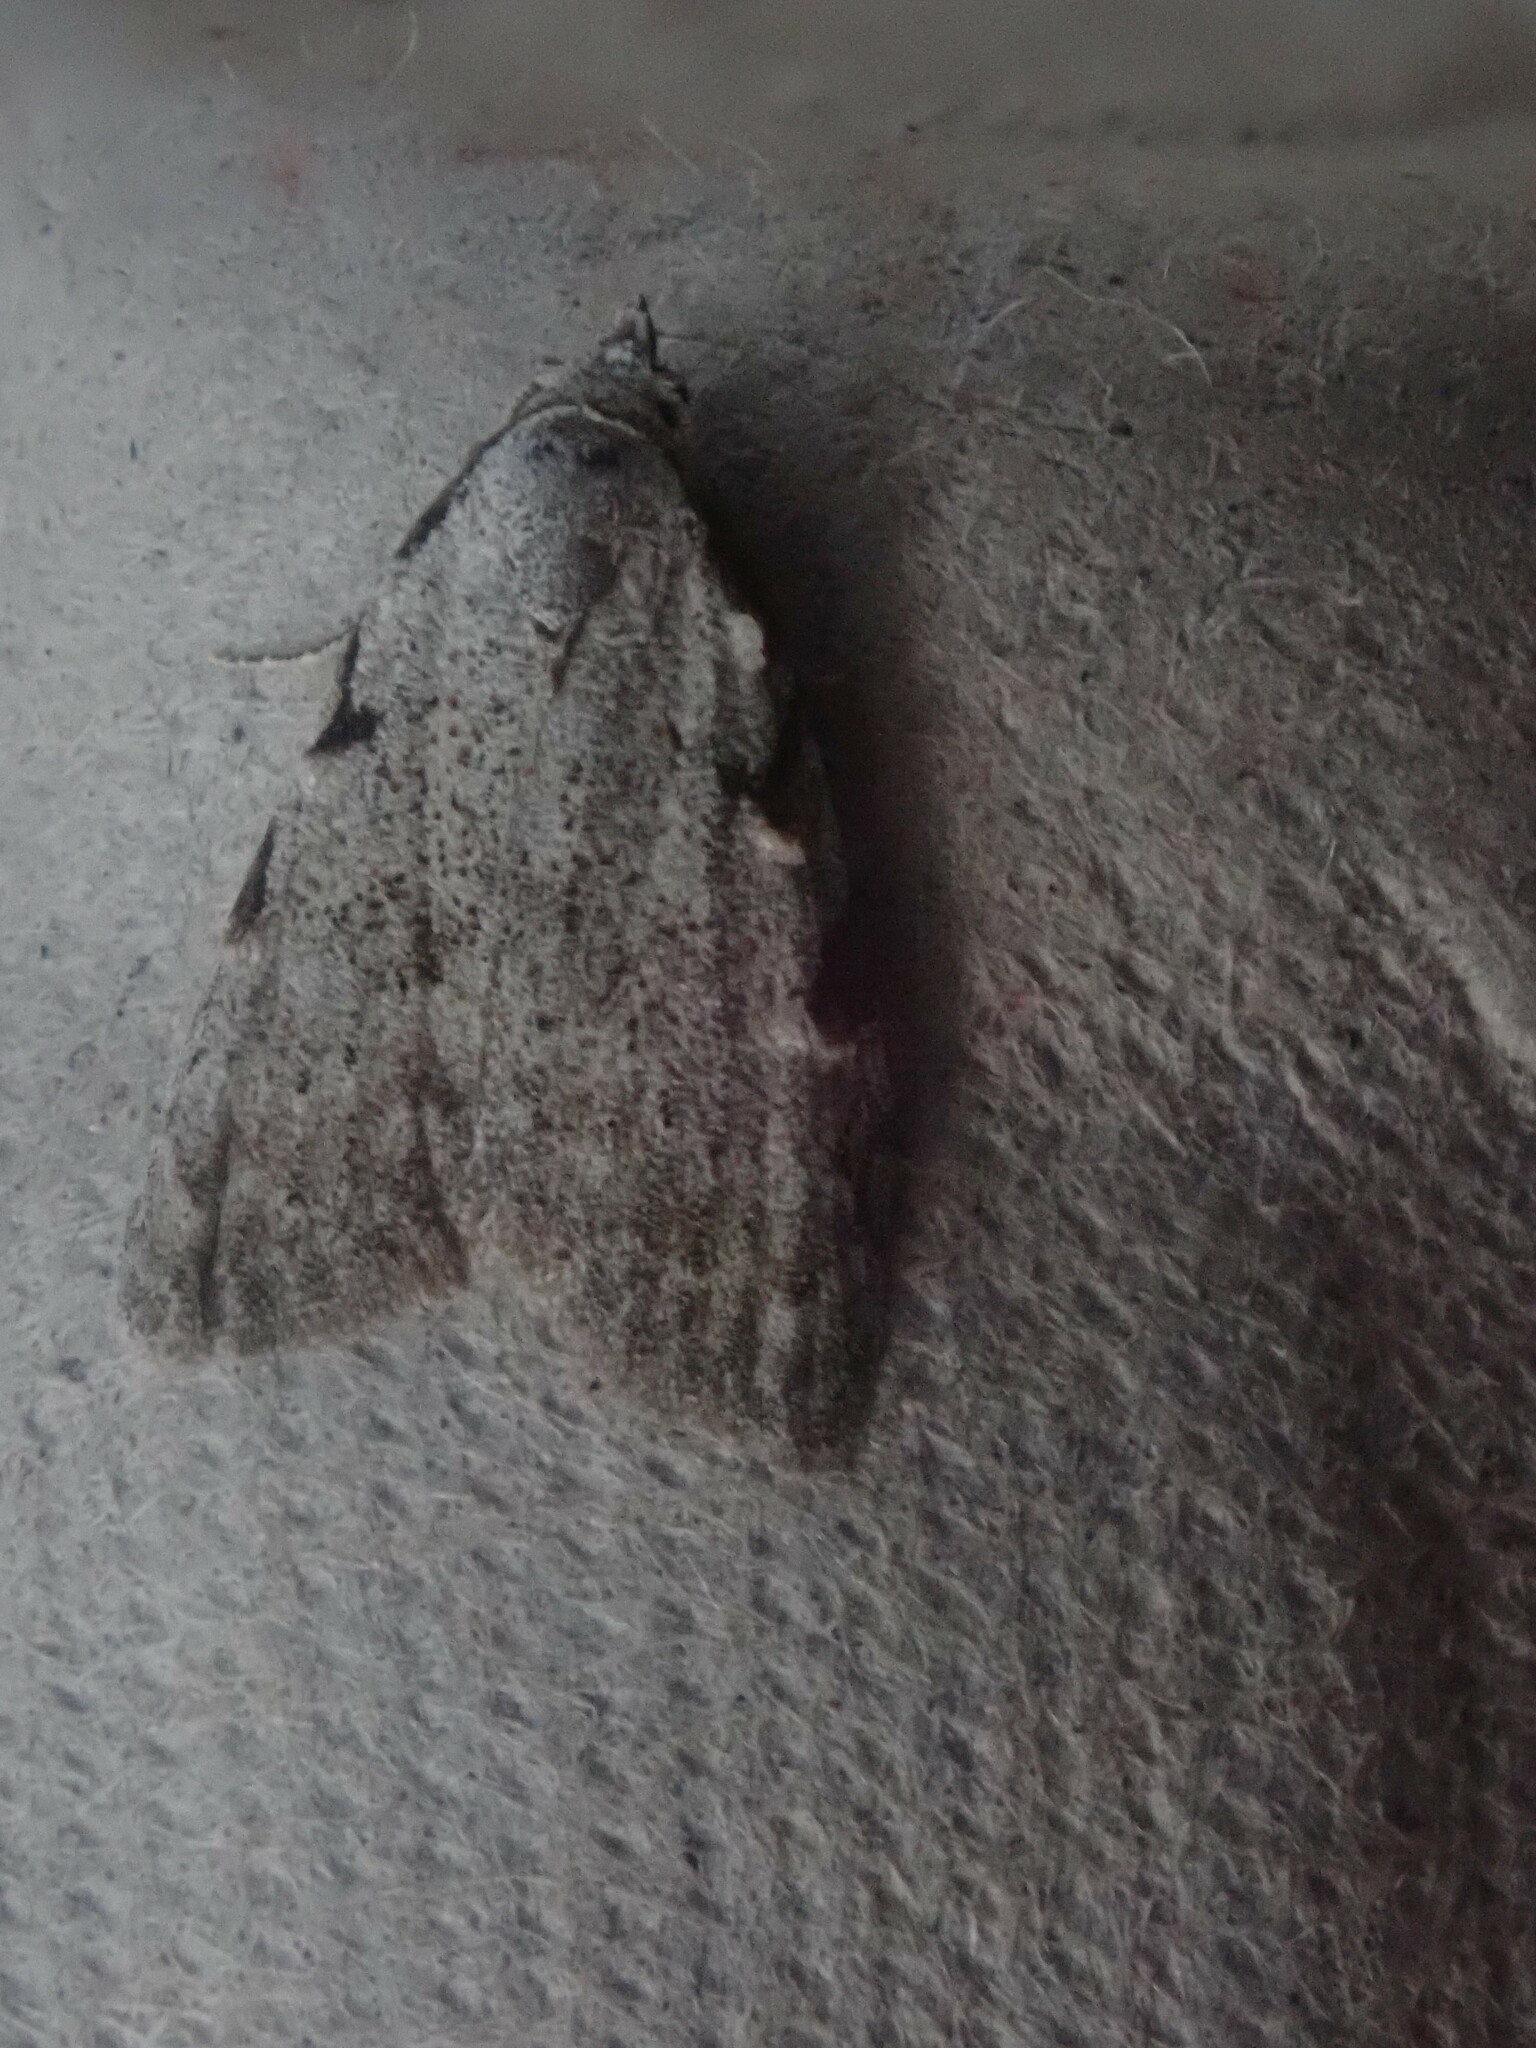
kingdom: Animalia
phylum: Arthropoda
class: Insecta
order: Lepidoptera
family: Nolidae
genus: Nola
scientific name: Nola triquetrana
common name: Three-spotted nola moth
